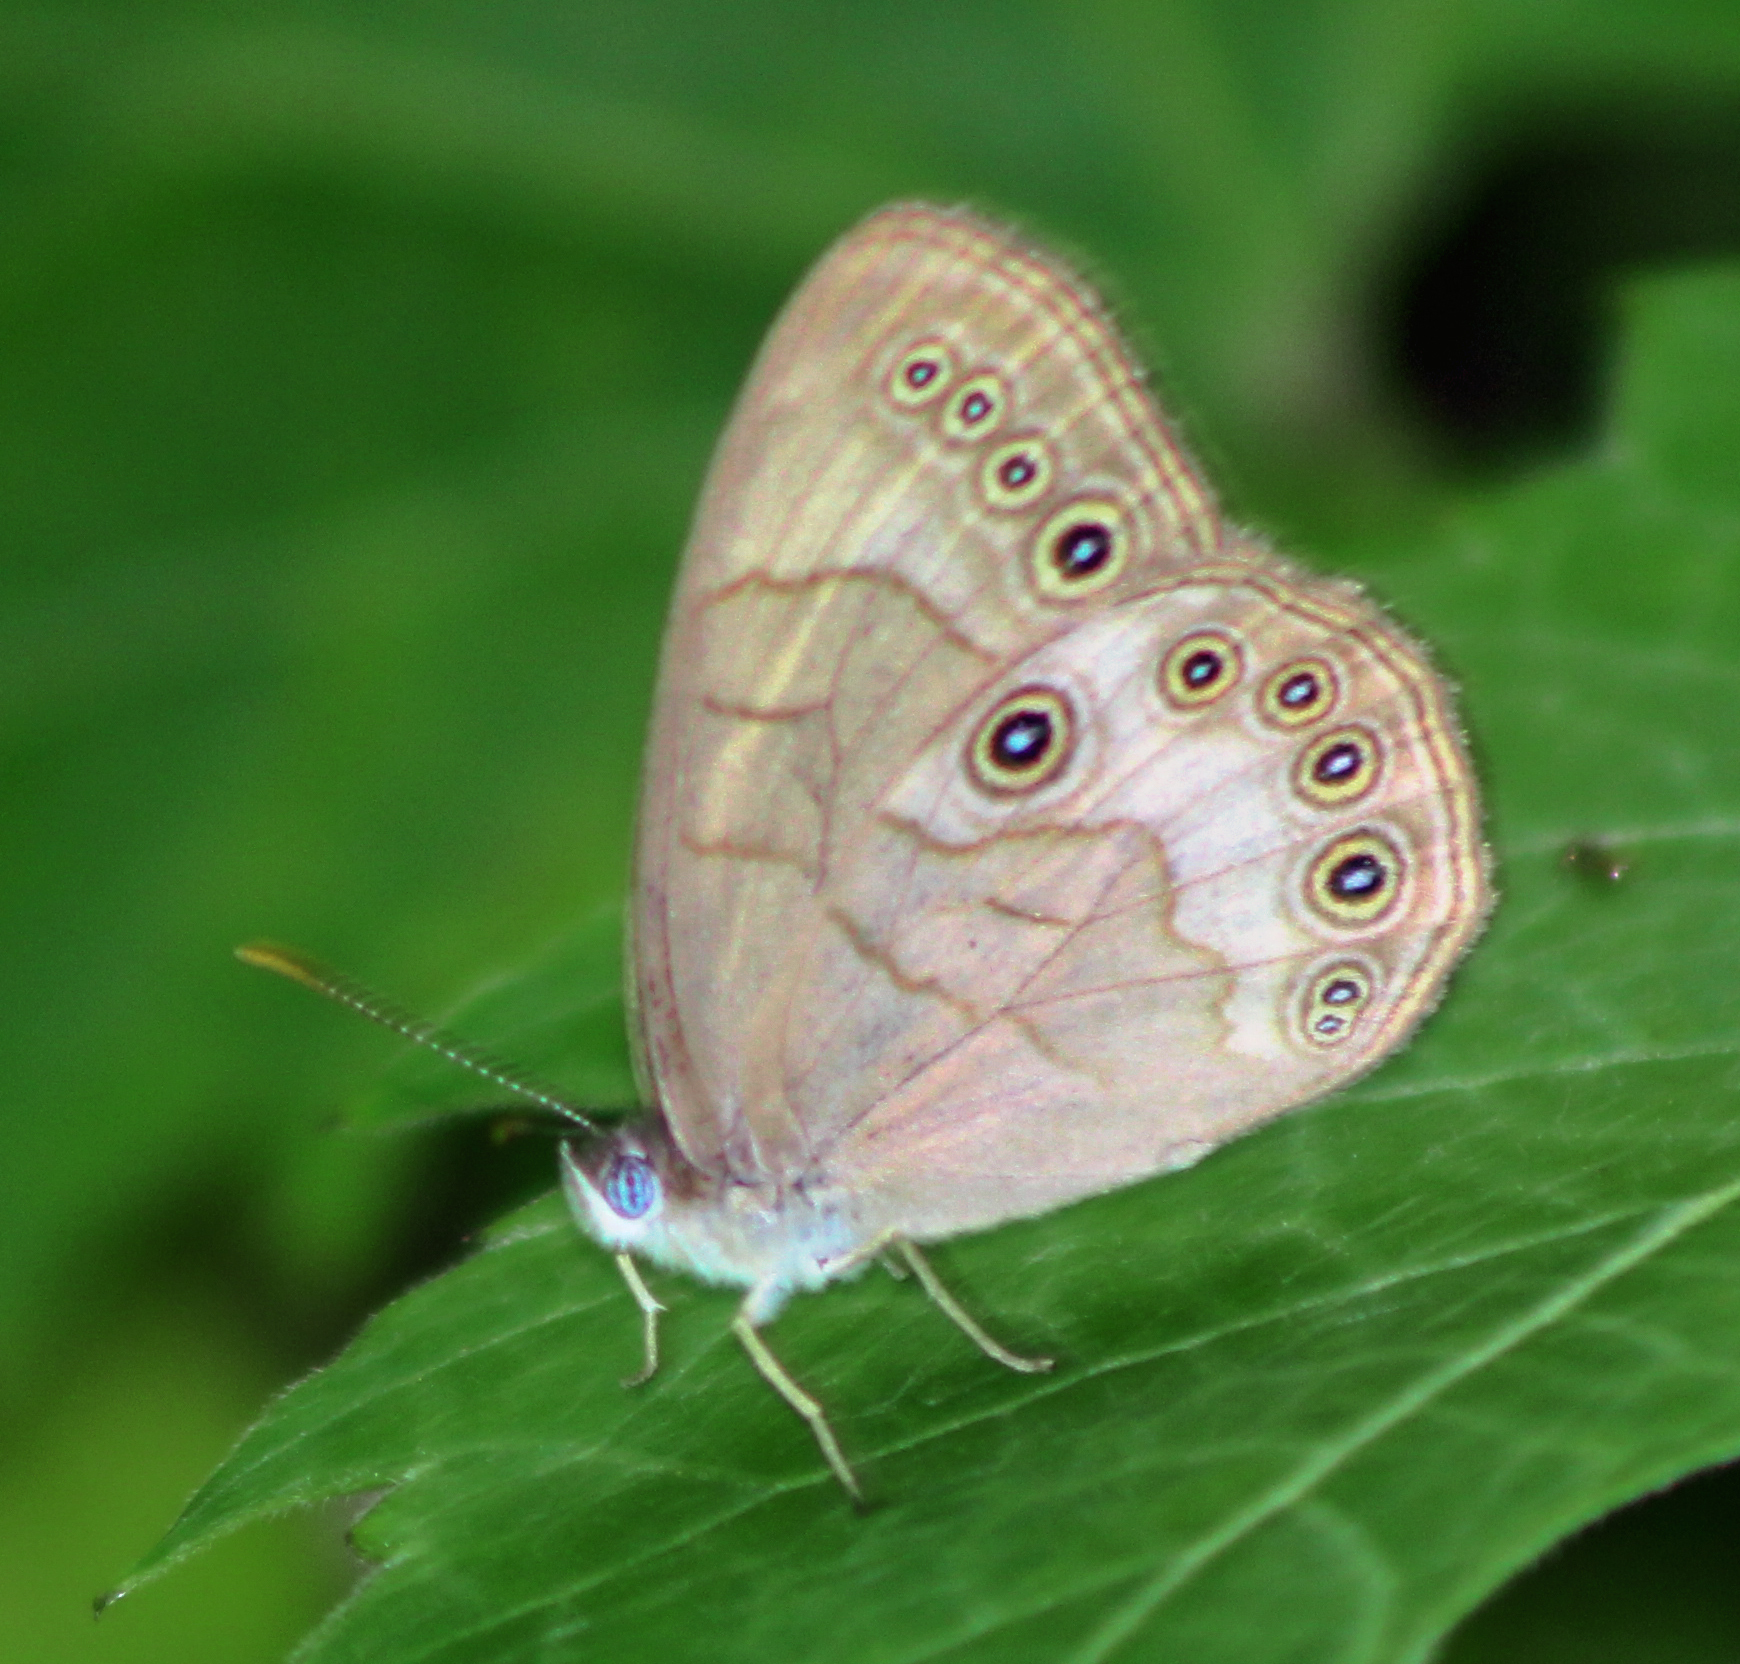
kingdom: Animalia
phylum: Arthropoda
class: Insecta
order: Lepidoptera
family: Nymphalidae
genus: Lethe
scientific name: Lethe eurydice
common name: Eyed brown
